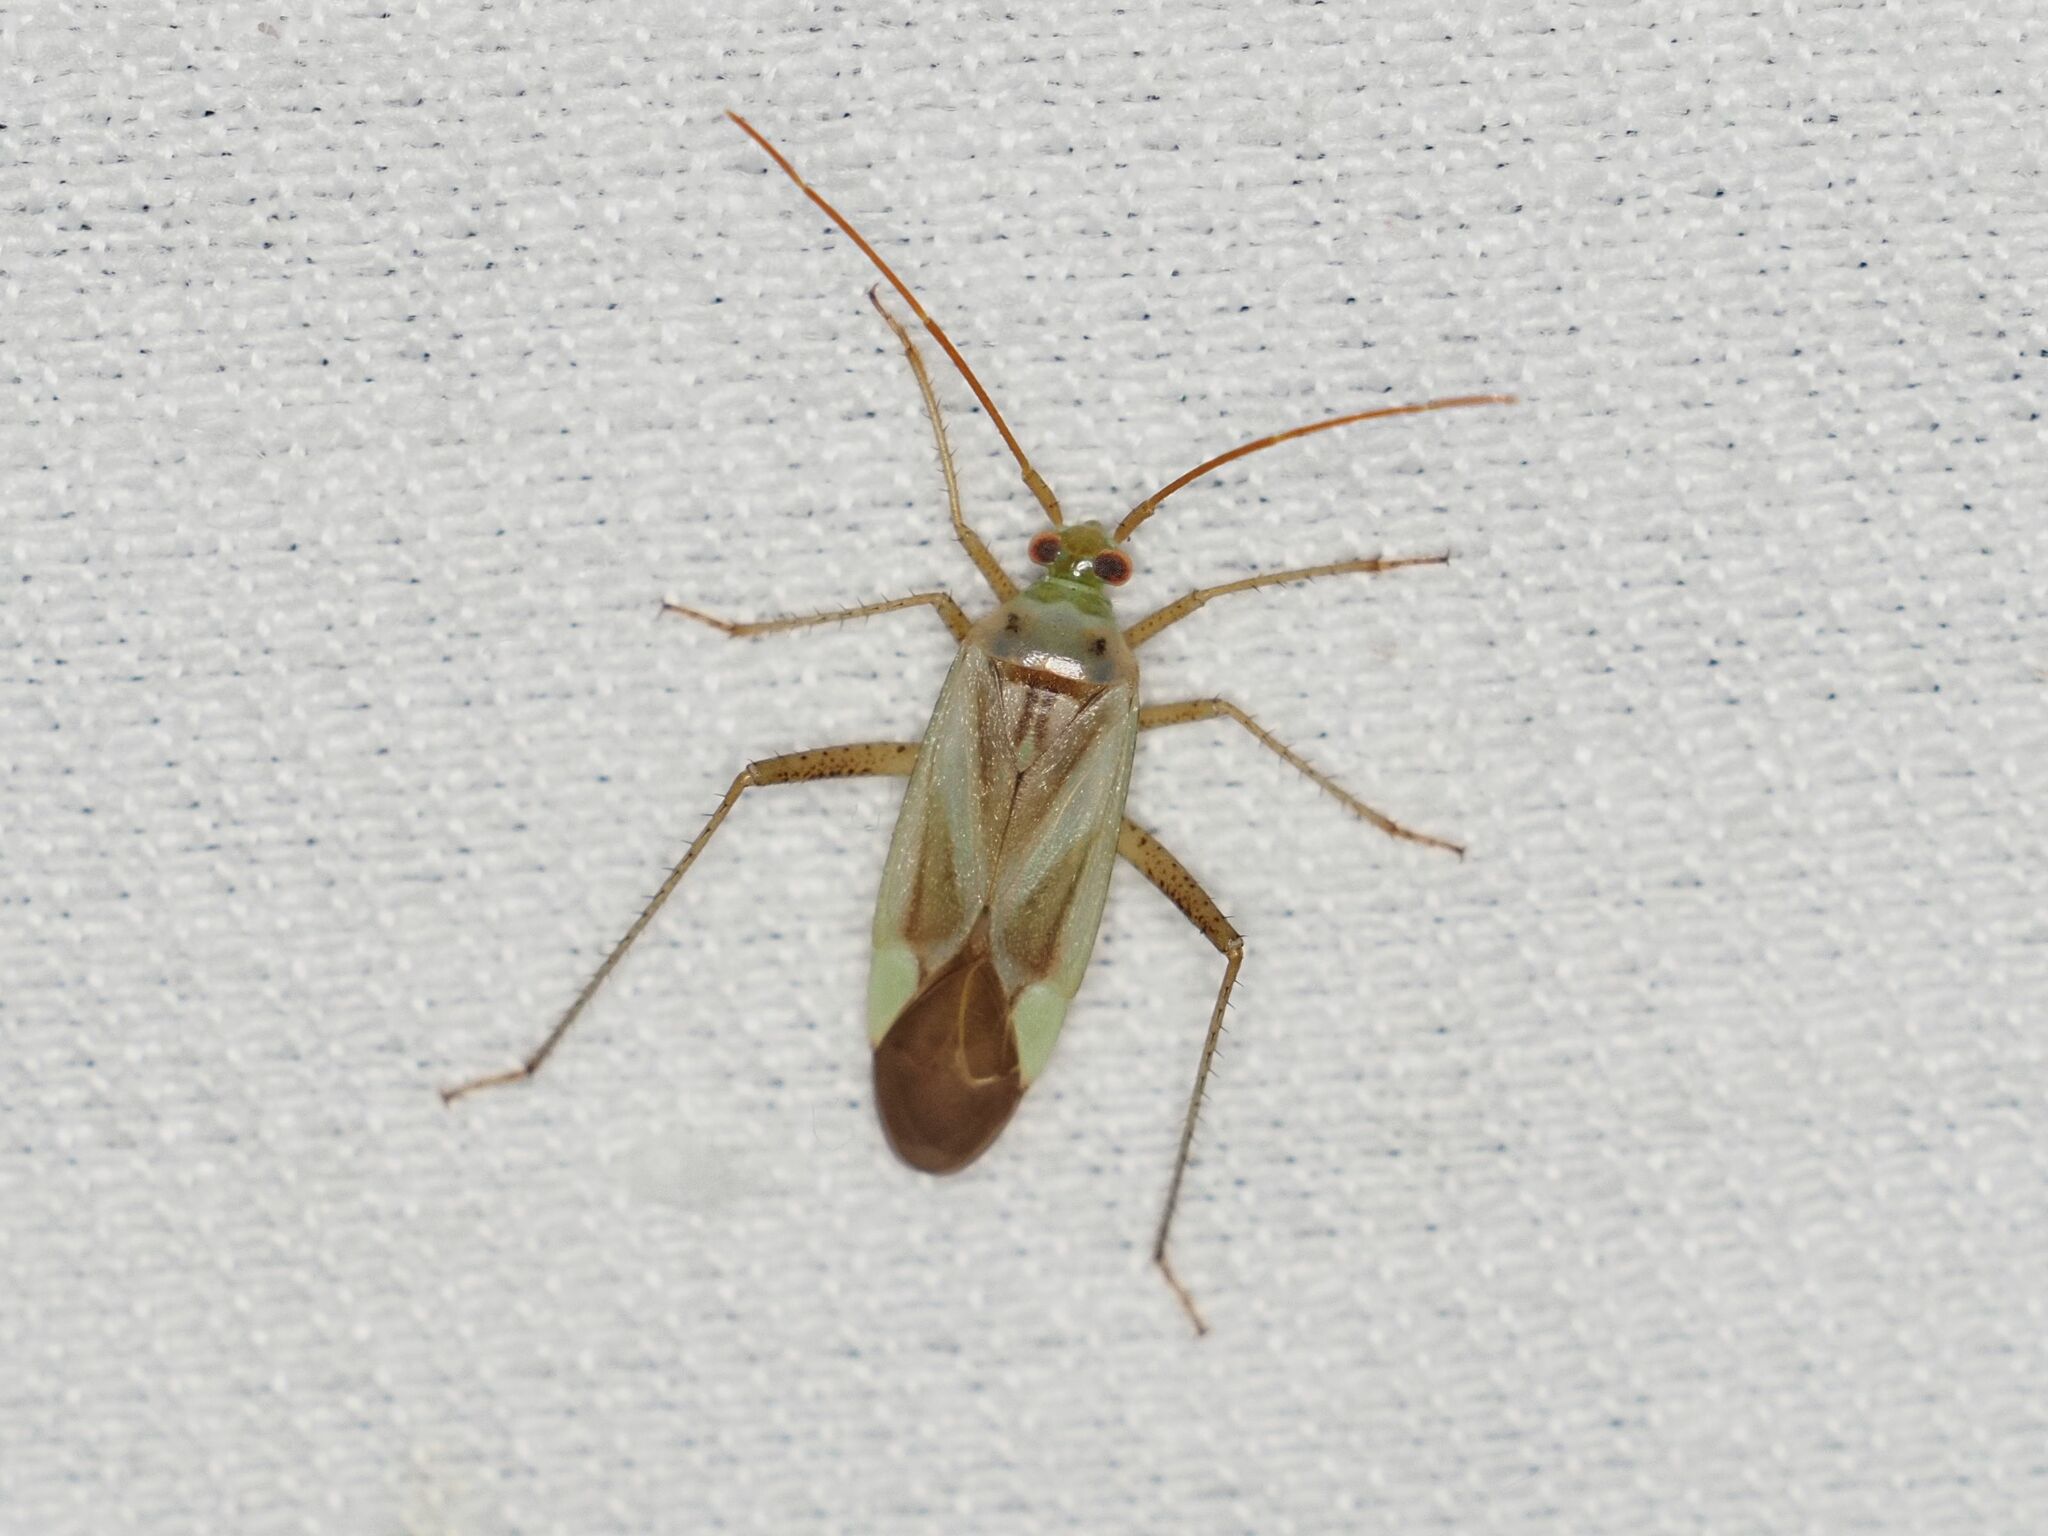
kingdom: Animalia
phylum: Arthropoda
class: Insecta
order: Hemiptera
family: Miridae
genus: Adelphocoris
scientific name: Adelphocoris lineolatus
